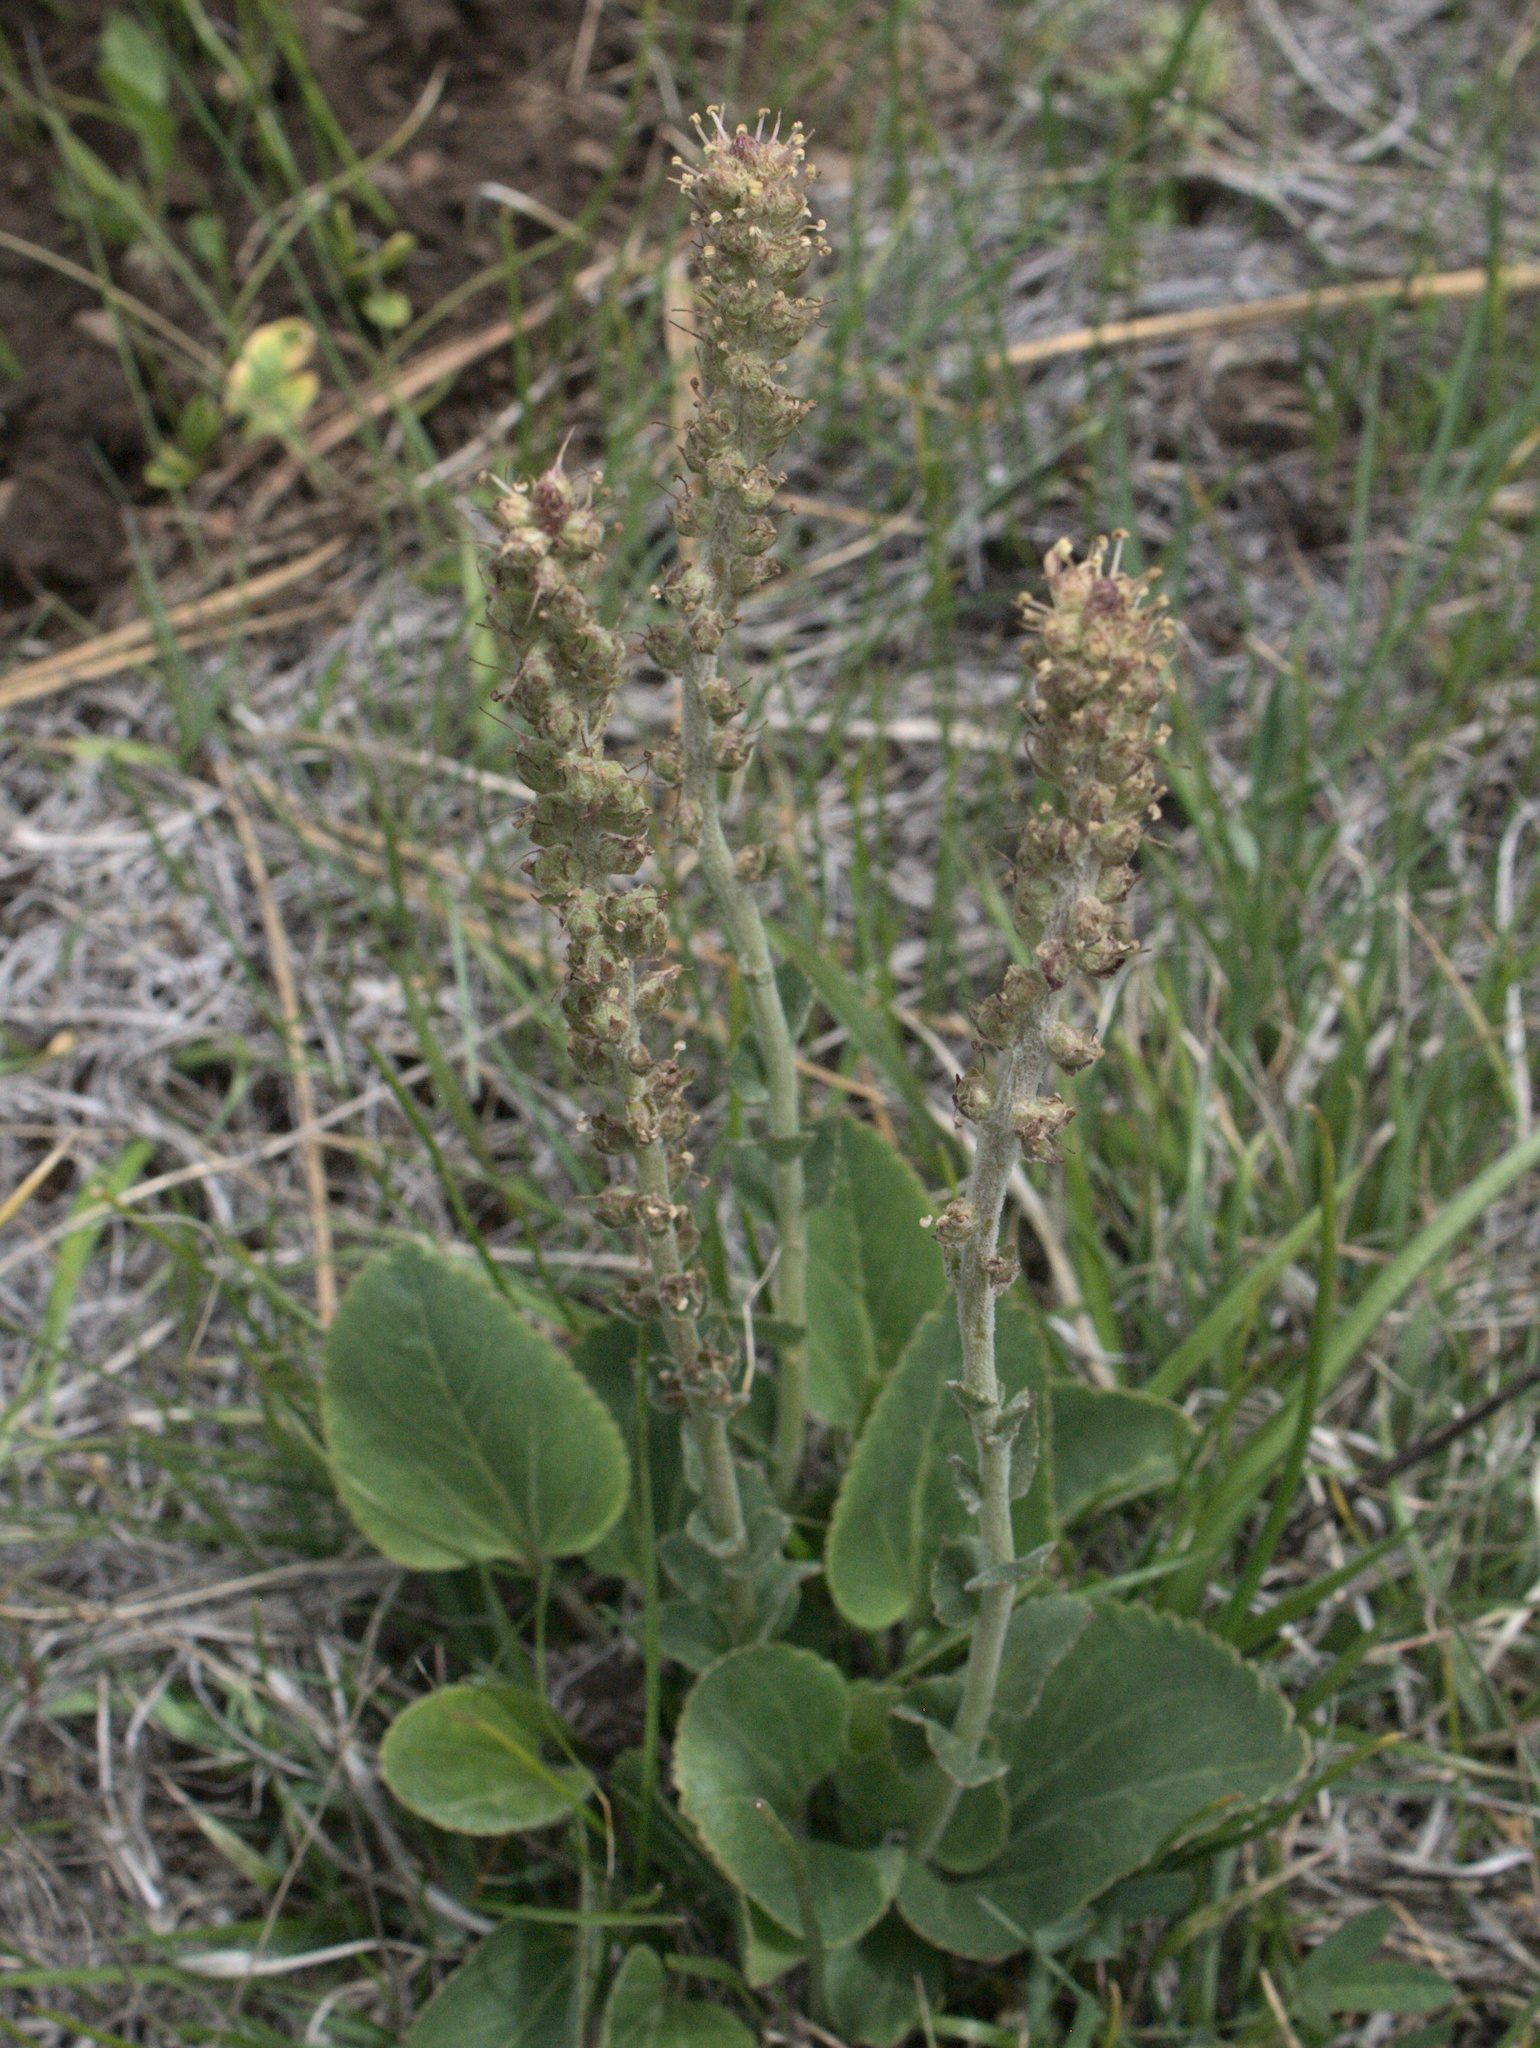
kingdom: Plantae
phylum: Tracheophyta
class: Magnoliopsida
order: Lamiales
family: Plantaginaceae
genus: Synthyris
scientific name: Synthyris rubra
